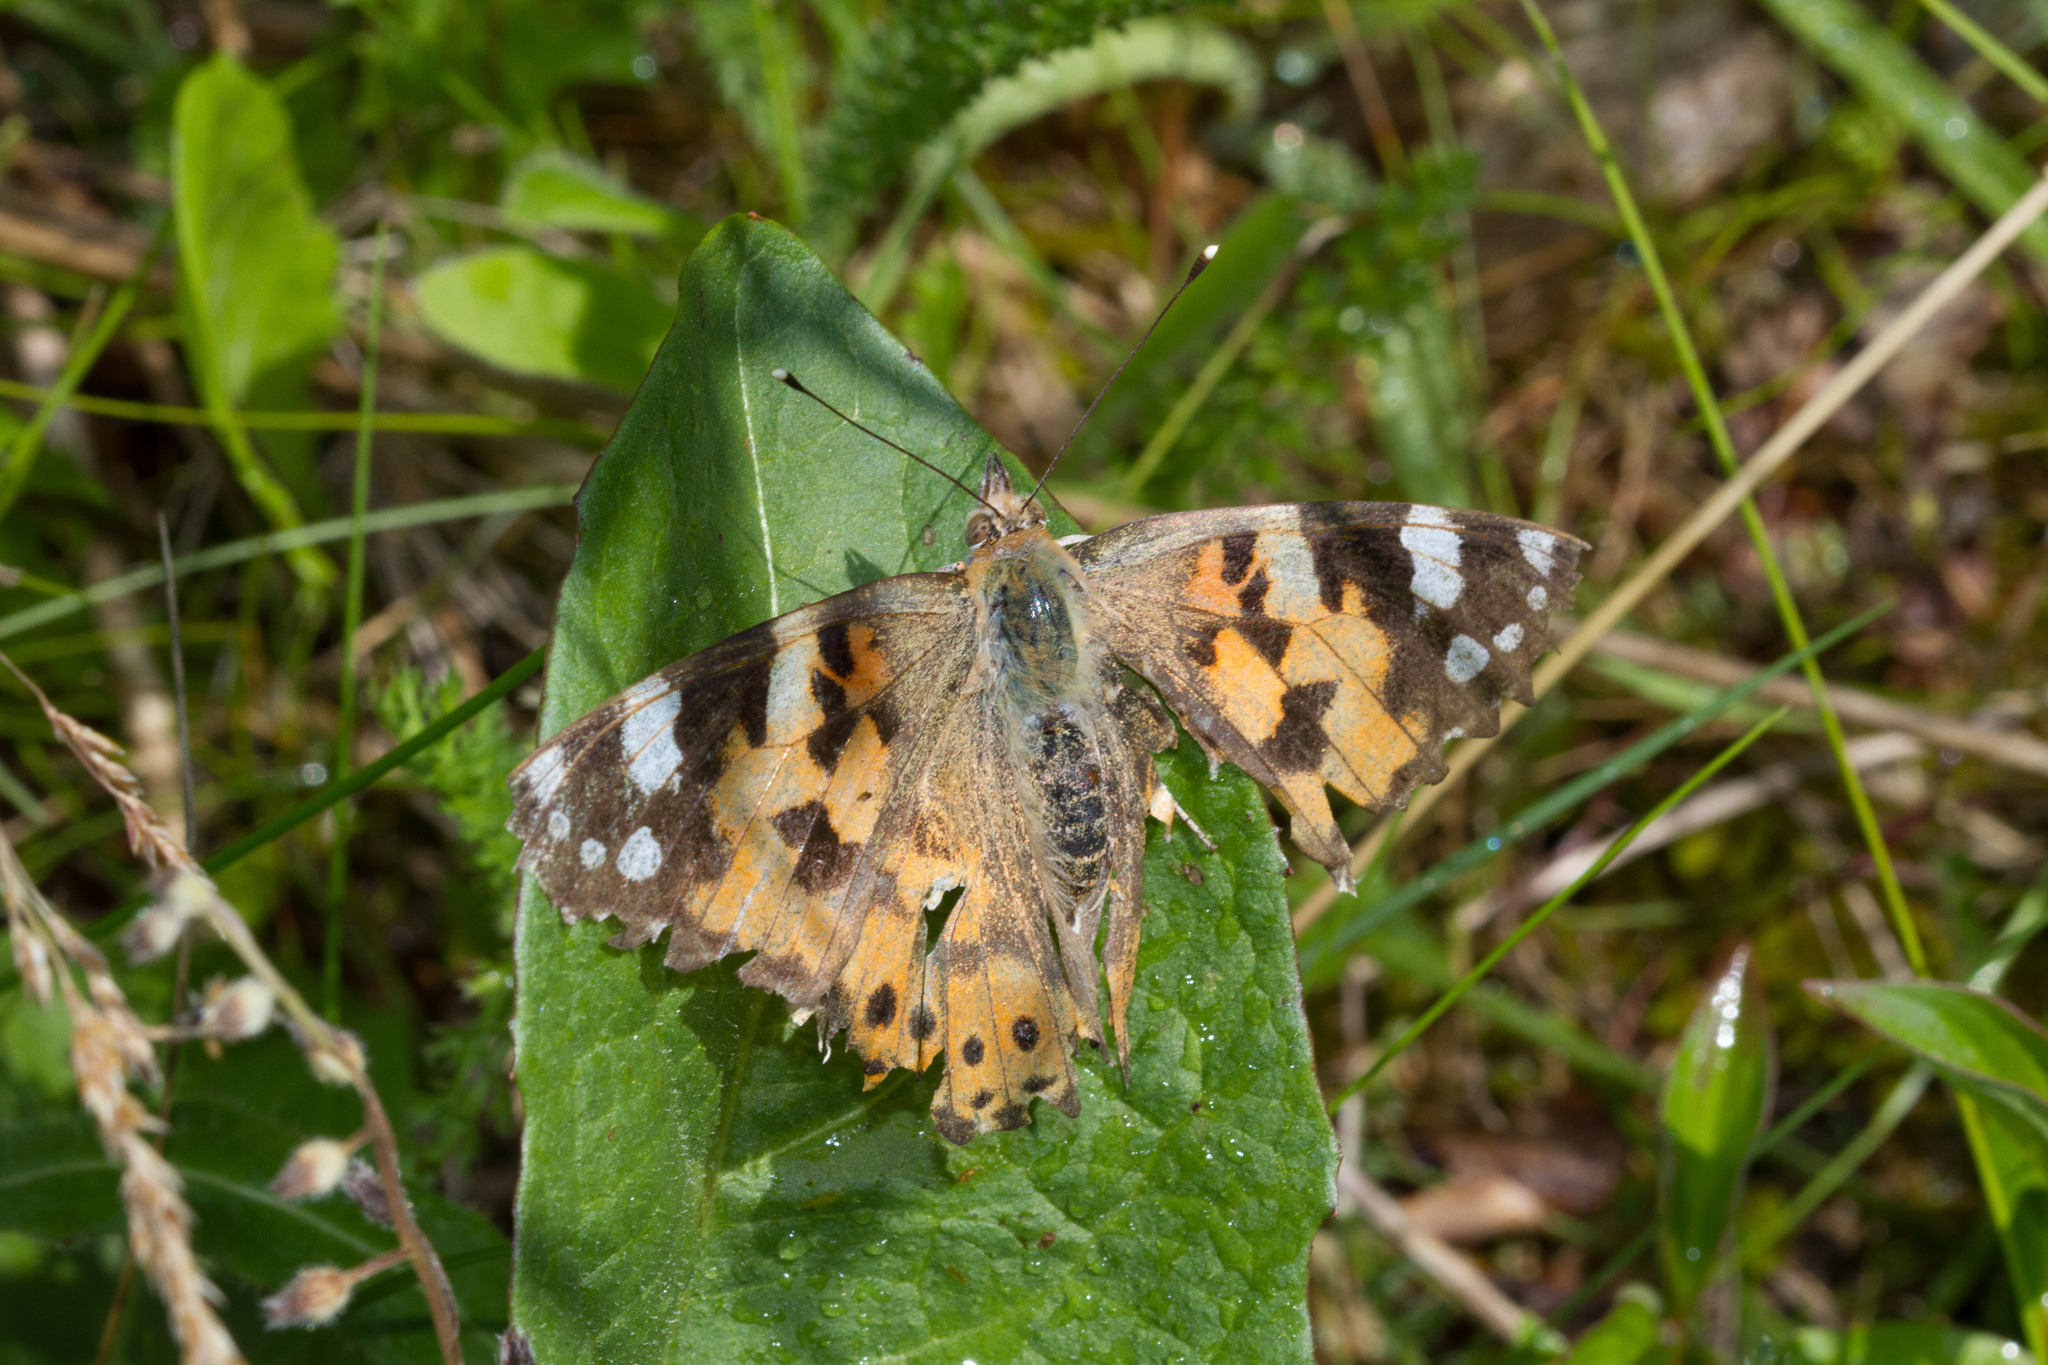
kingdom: Animalia
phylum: Arthropoda
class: Insecta
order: Lepidoptera
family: Nymphalidae
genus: Vanessa
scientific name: Vanessa cardui
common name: Painted lady
